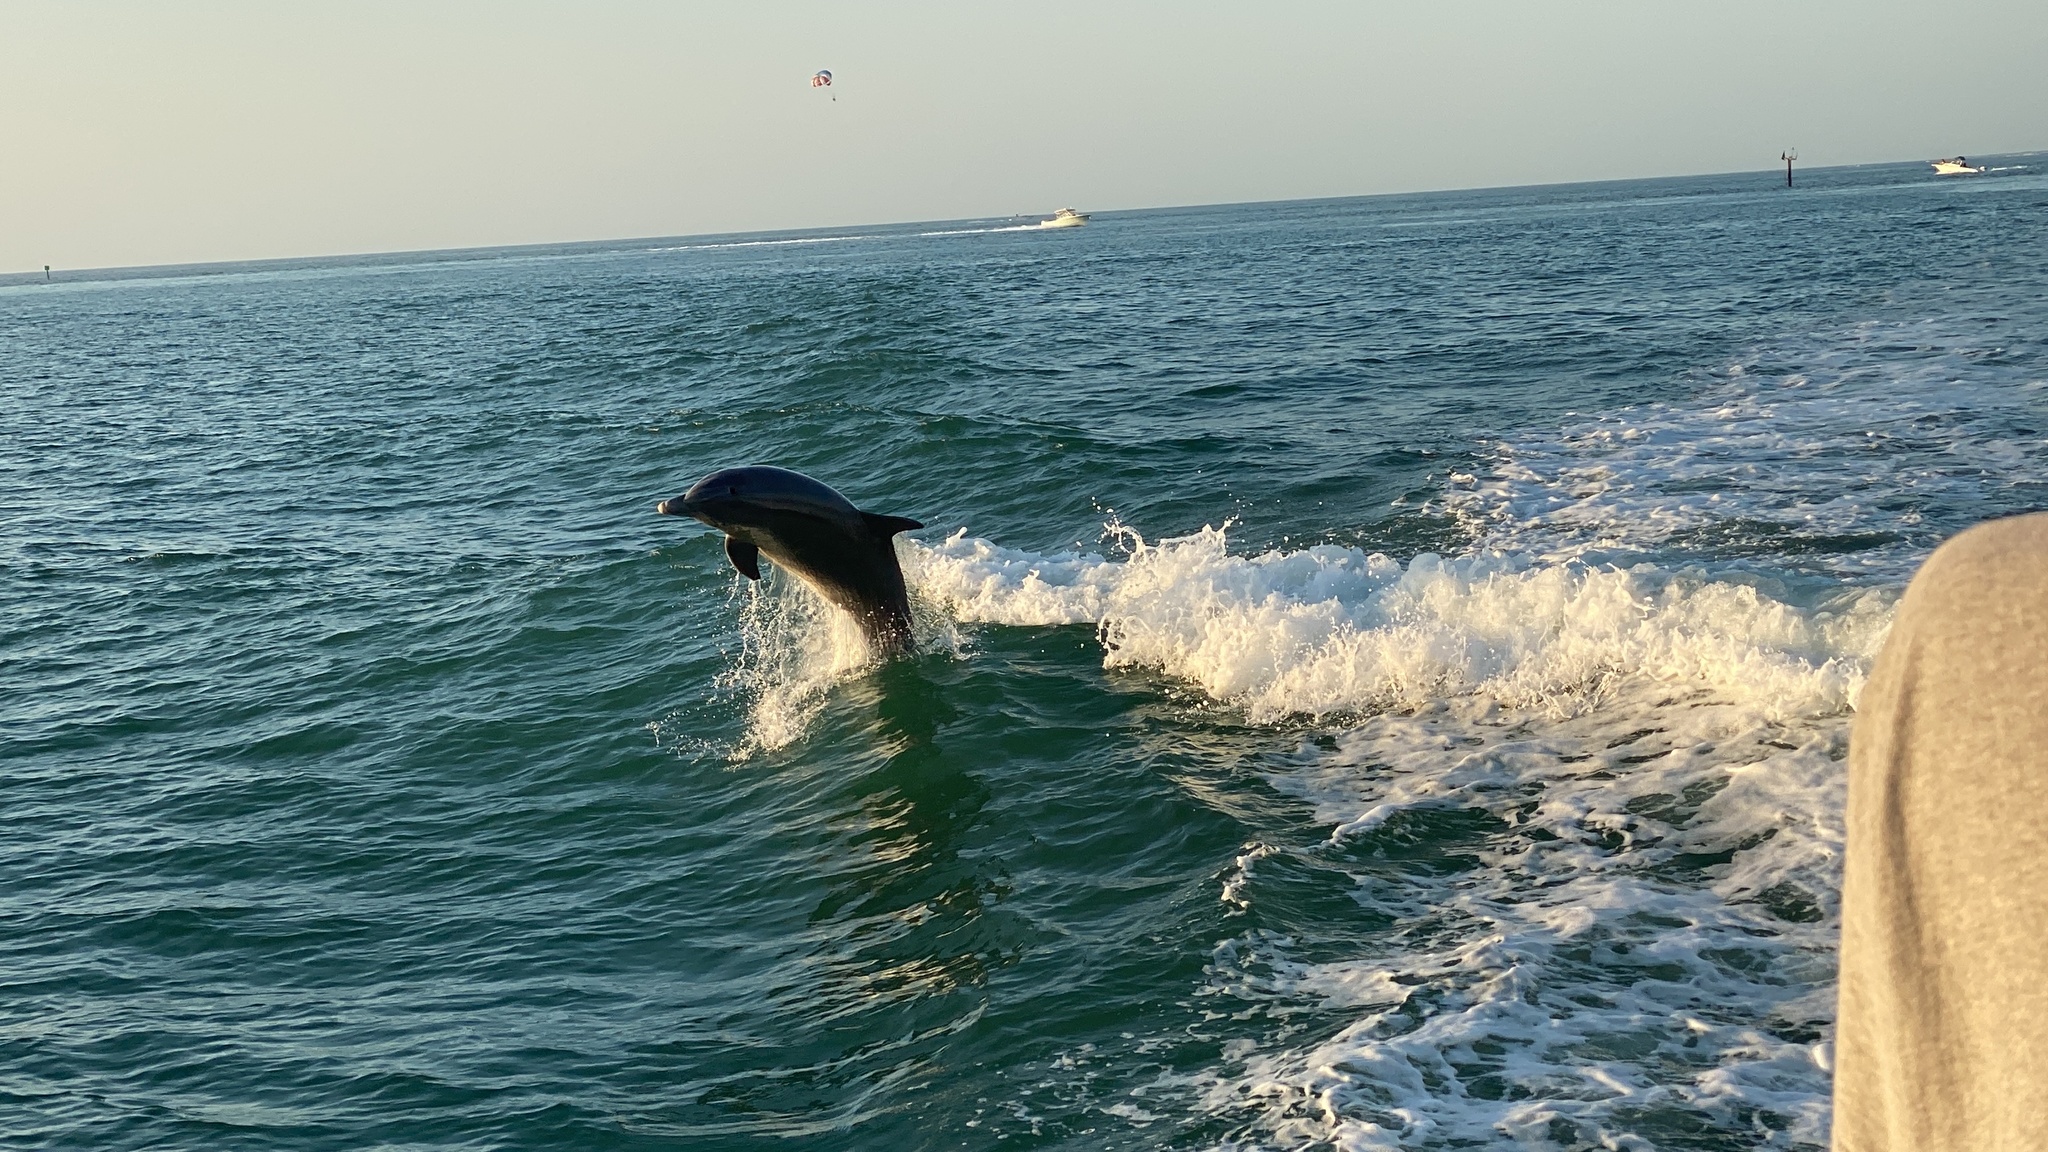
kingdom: Animalia
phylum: Chordata
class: Mammalia
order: Cetacea
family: Delphinidae
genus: Tursiops
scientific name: Tursiops truncatus
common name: Bottlenose dolphin
